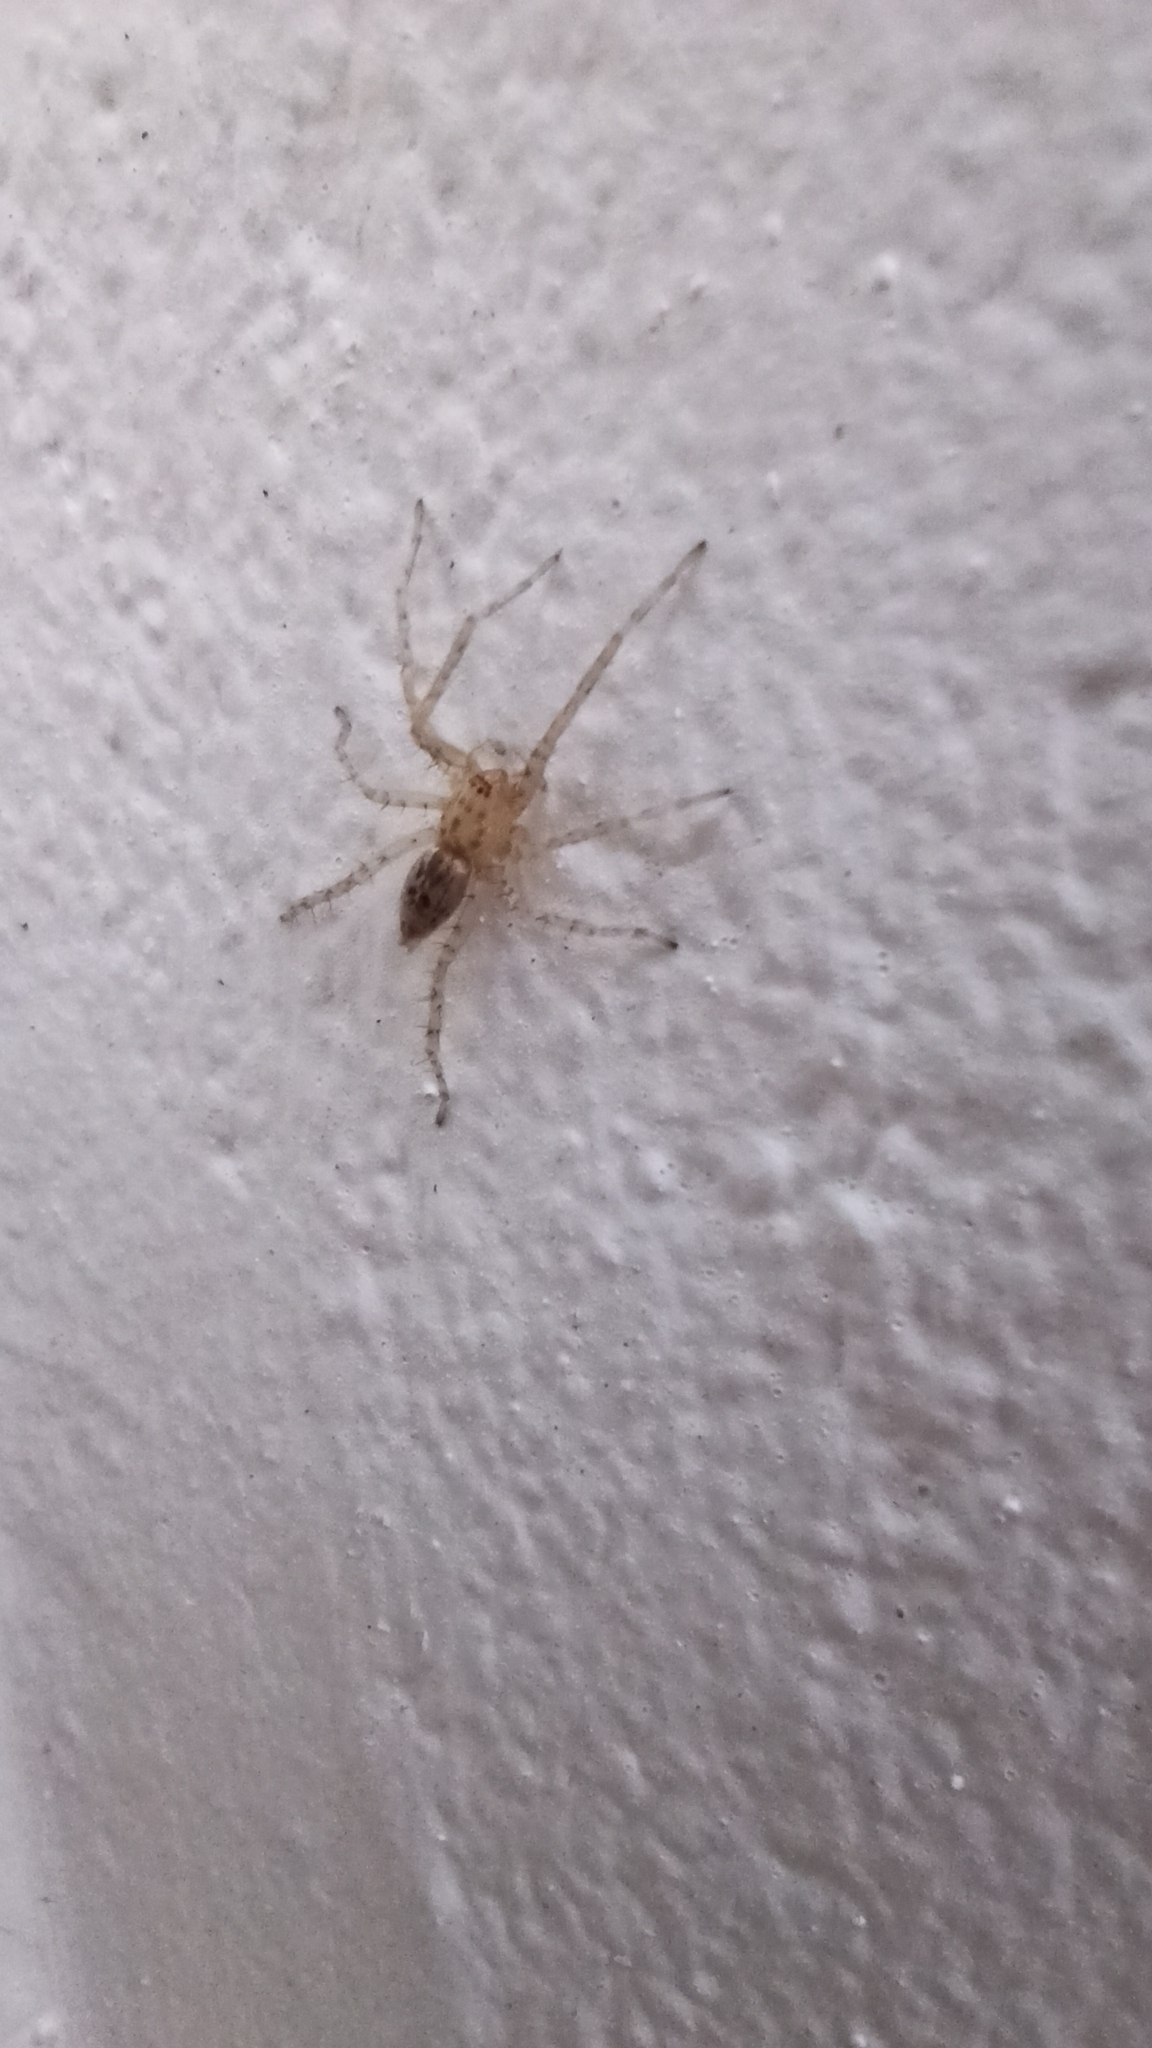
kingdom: Animalia
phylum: Arthropoda
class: Arachnida
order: Araneae
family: Anyphaenidae
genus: Anyphaena
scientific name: Anyphaena numida
